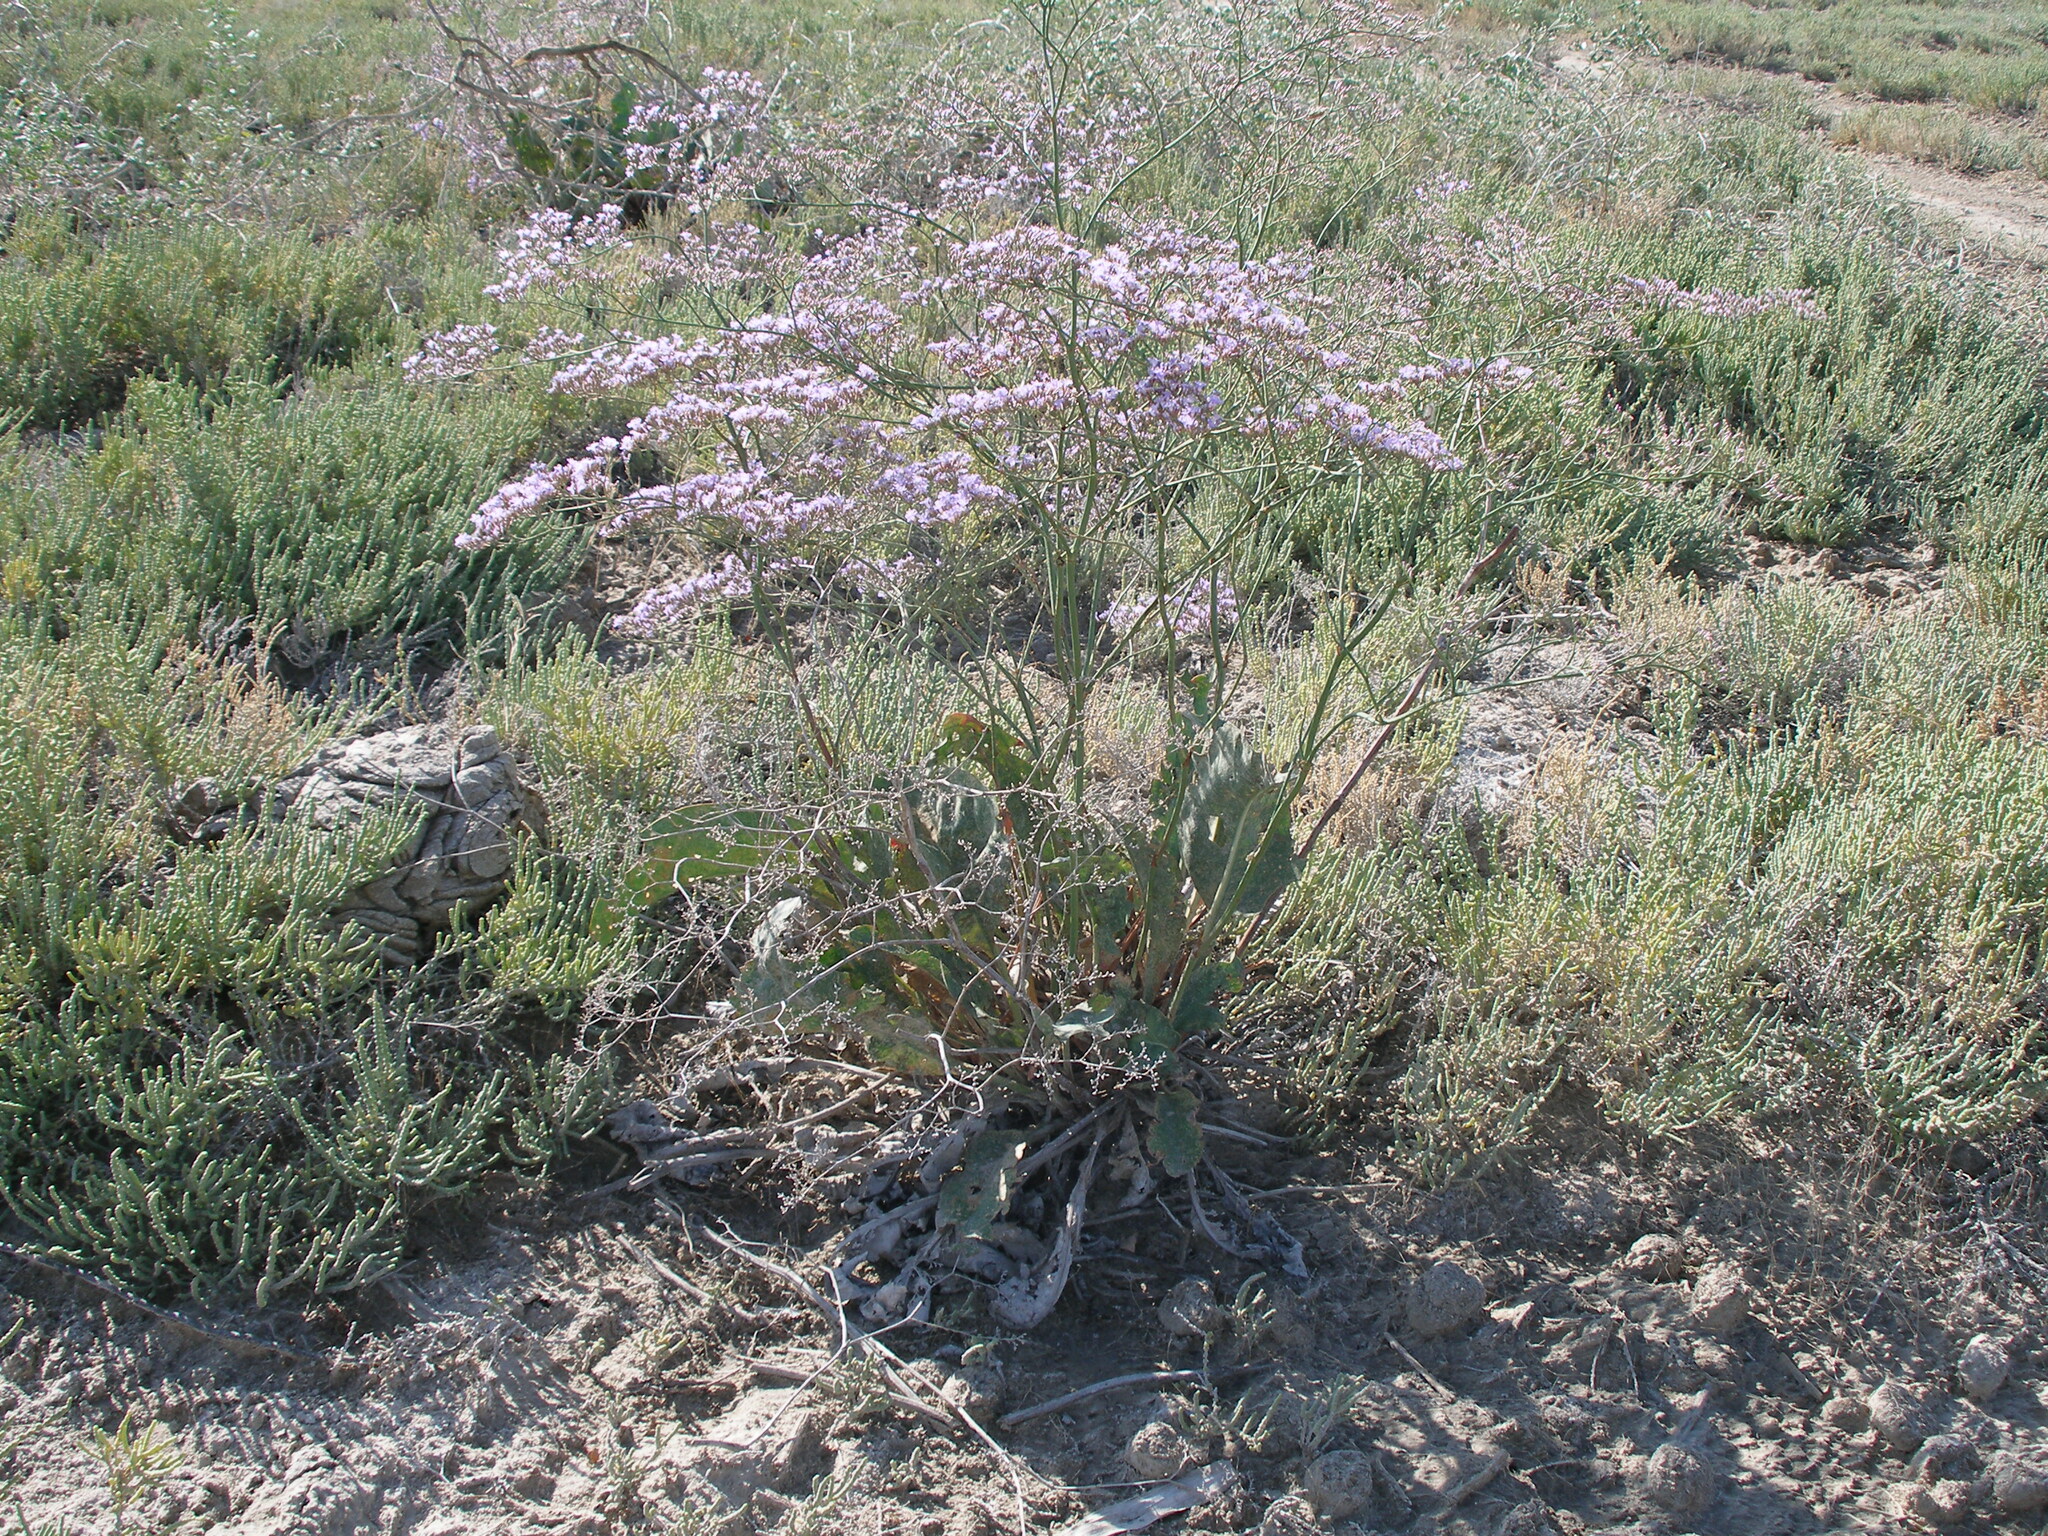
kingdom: Plantae
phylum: Tracheophyta
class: Magnoliopsida
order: Caryophyllales
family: Plumbaginaceae
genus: Limonium
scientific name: Limonium gmelini
